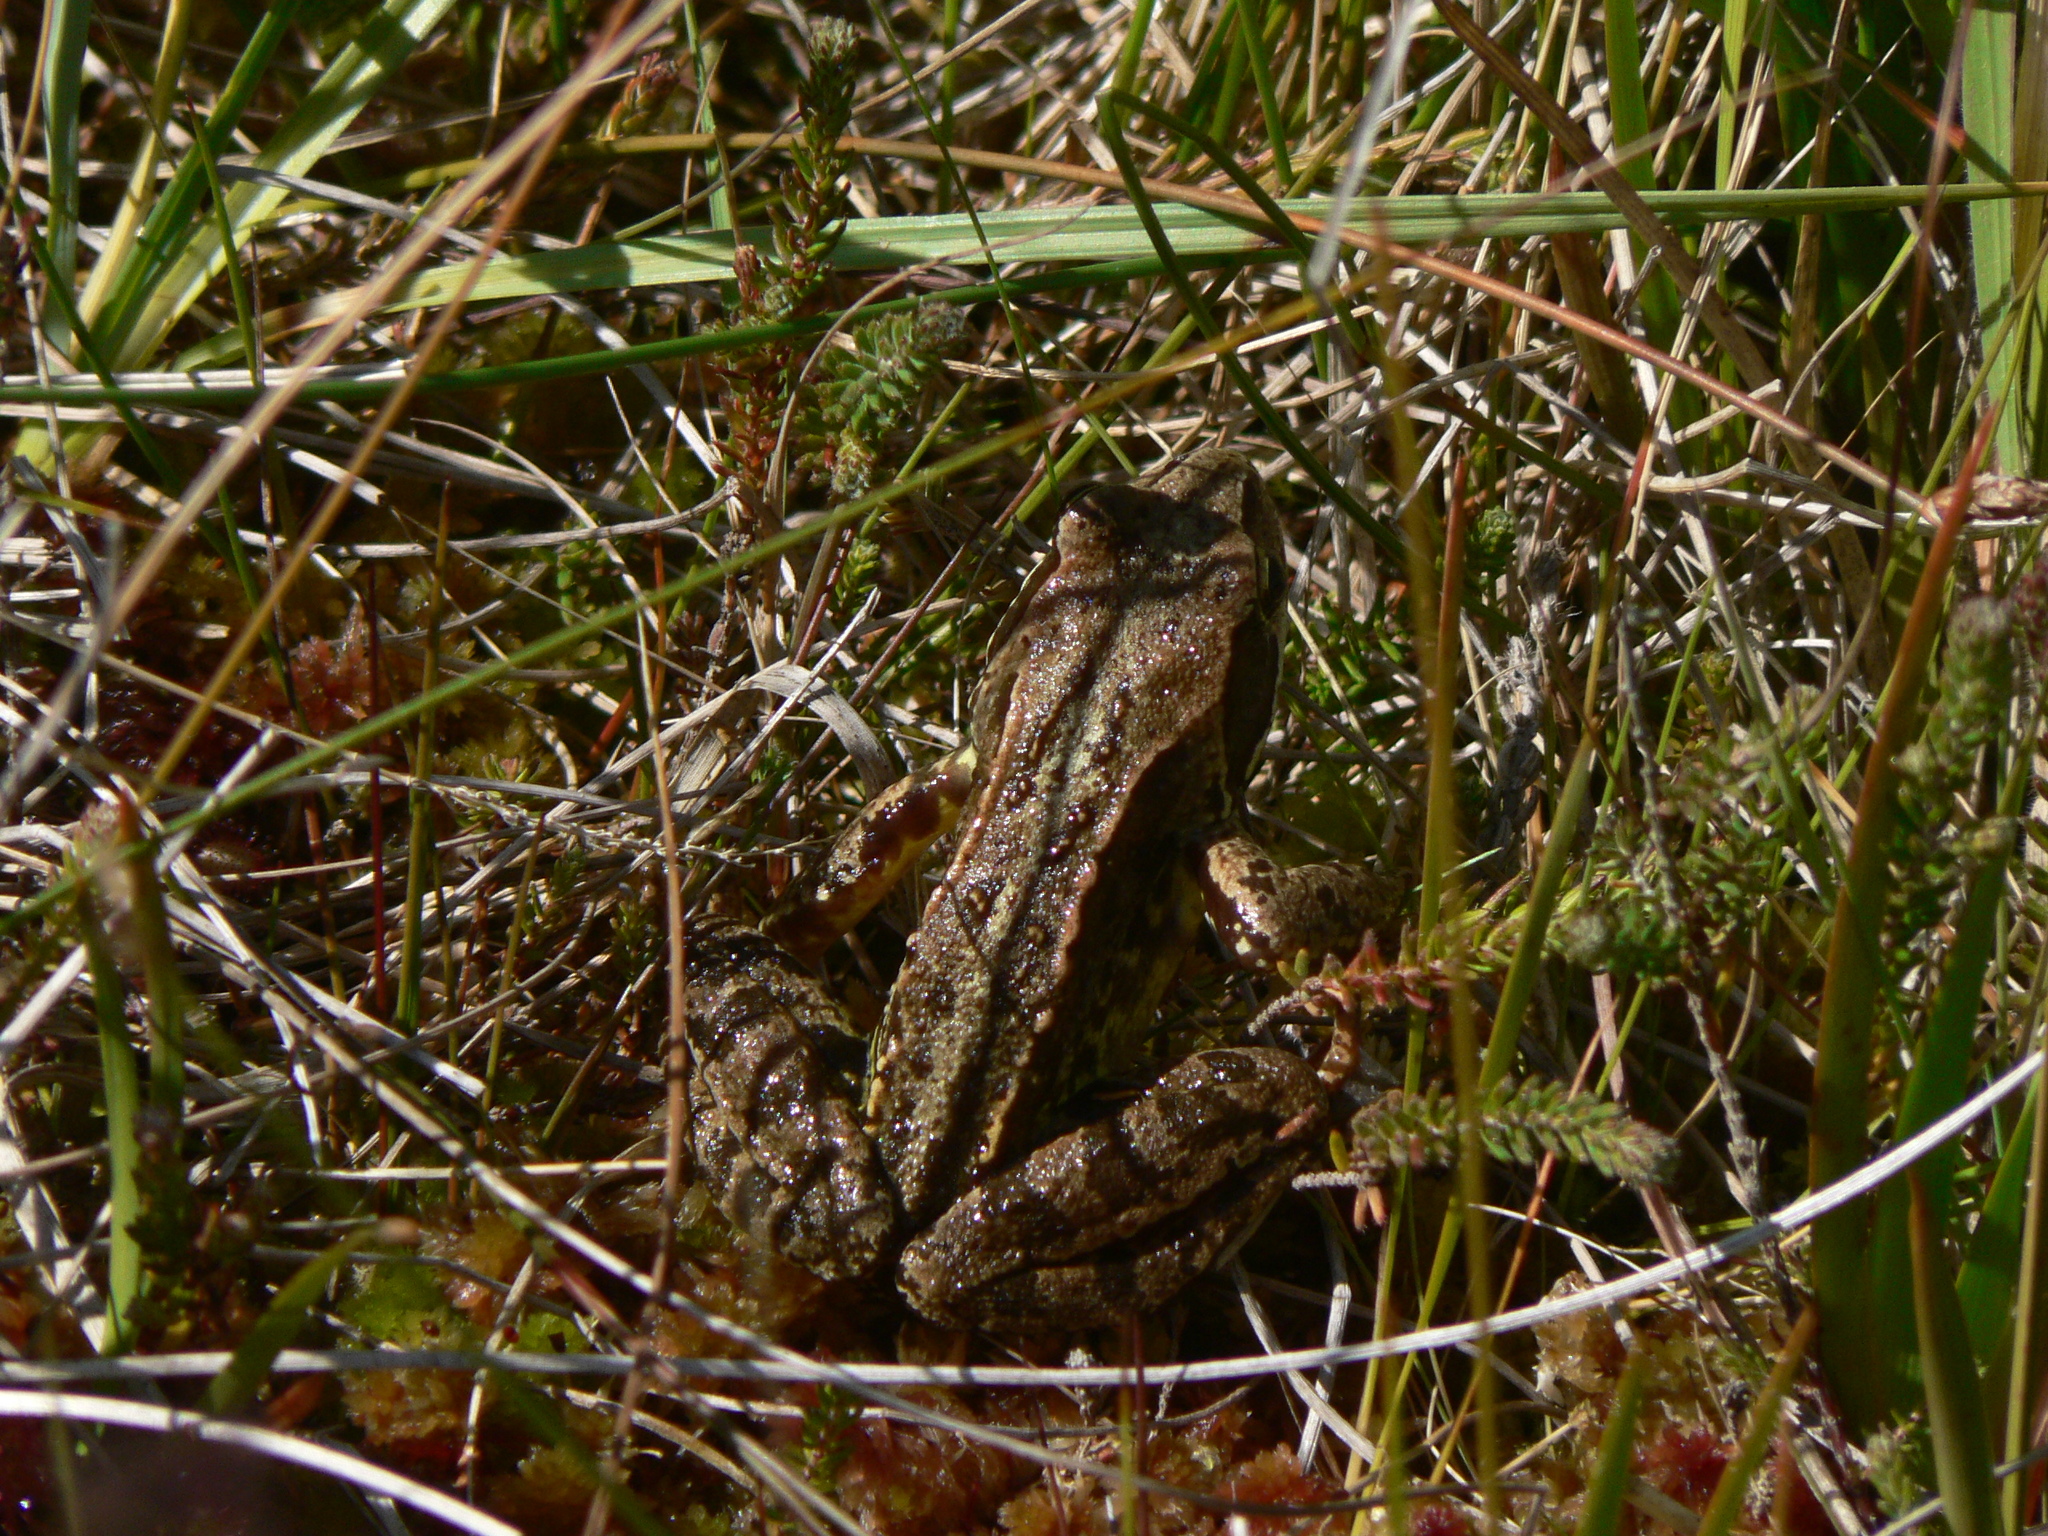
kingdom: Animalia
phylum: Chordata
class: Amphibia
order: Anura
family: Ranidae
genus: Rana
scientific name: Rana temporaria
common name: Common frog
